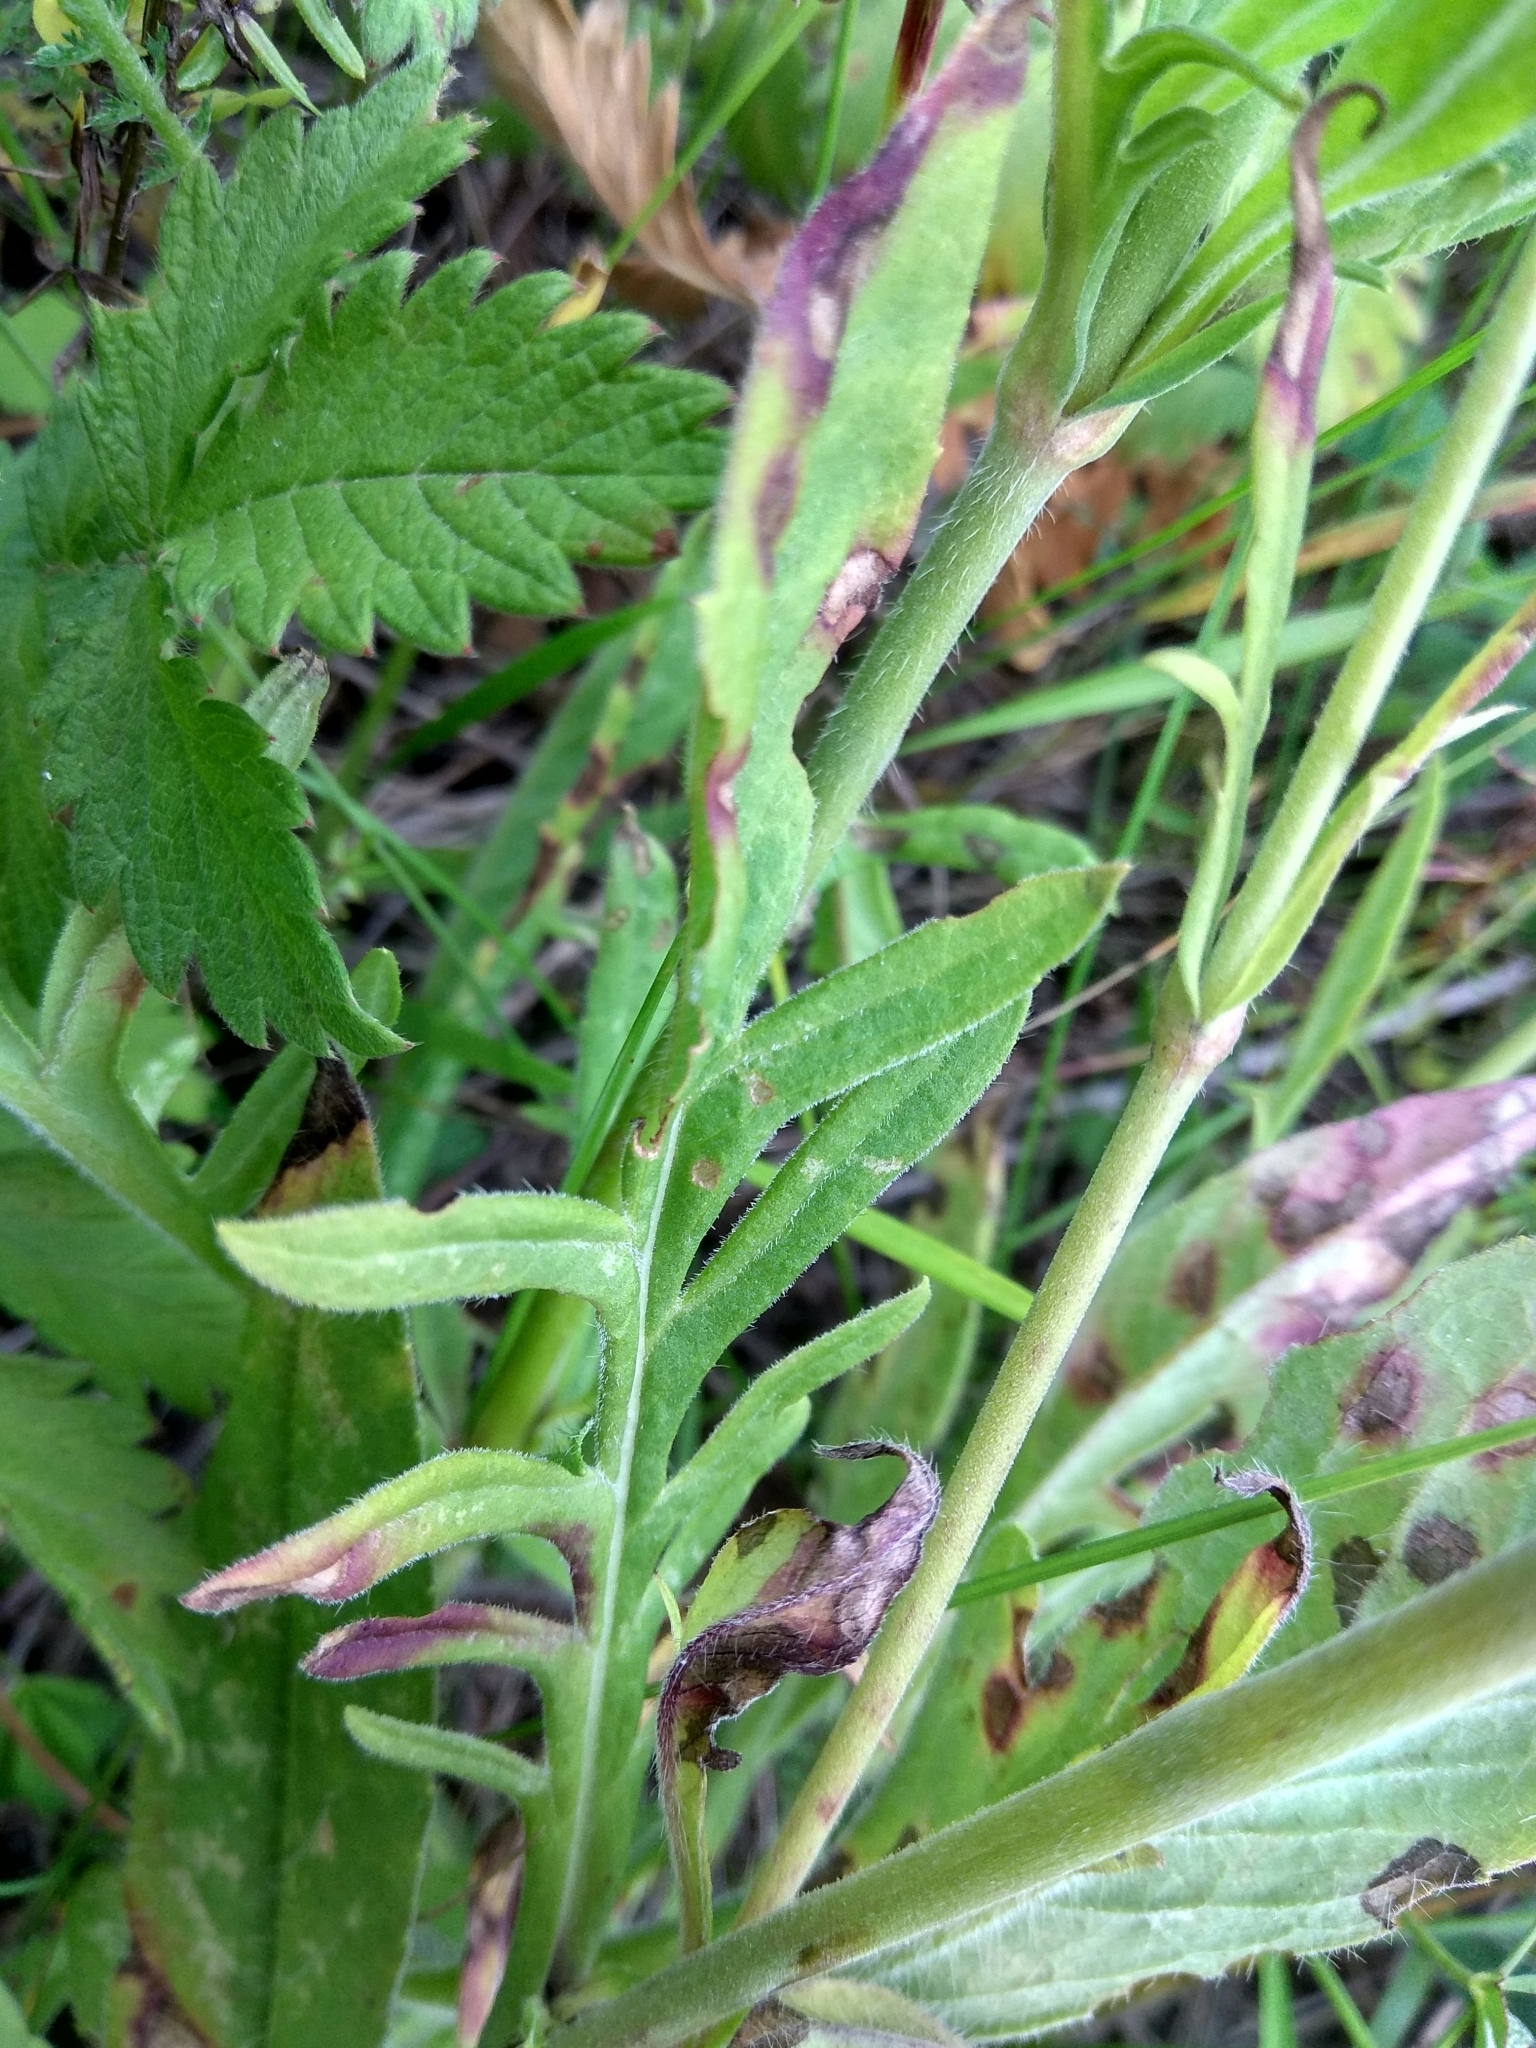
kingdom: Plantae
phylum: Tracheophyta
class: Magnoliopsida
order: Dipsacales
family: Caprifoliaceae
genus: Knautia
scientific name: Knautia arvensis
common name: Field scabiosa
